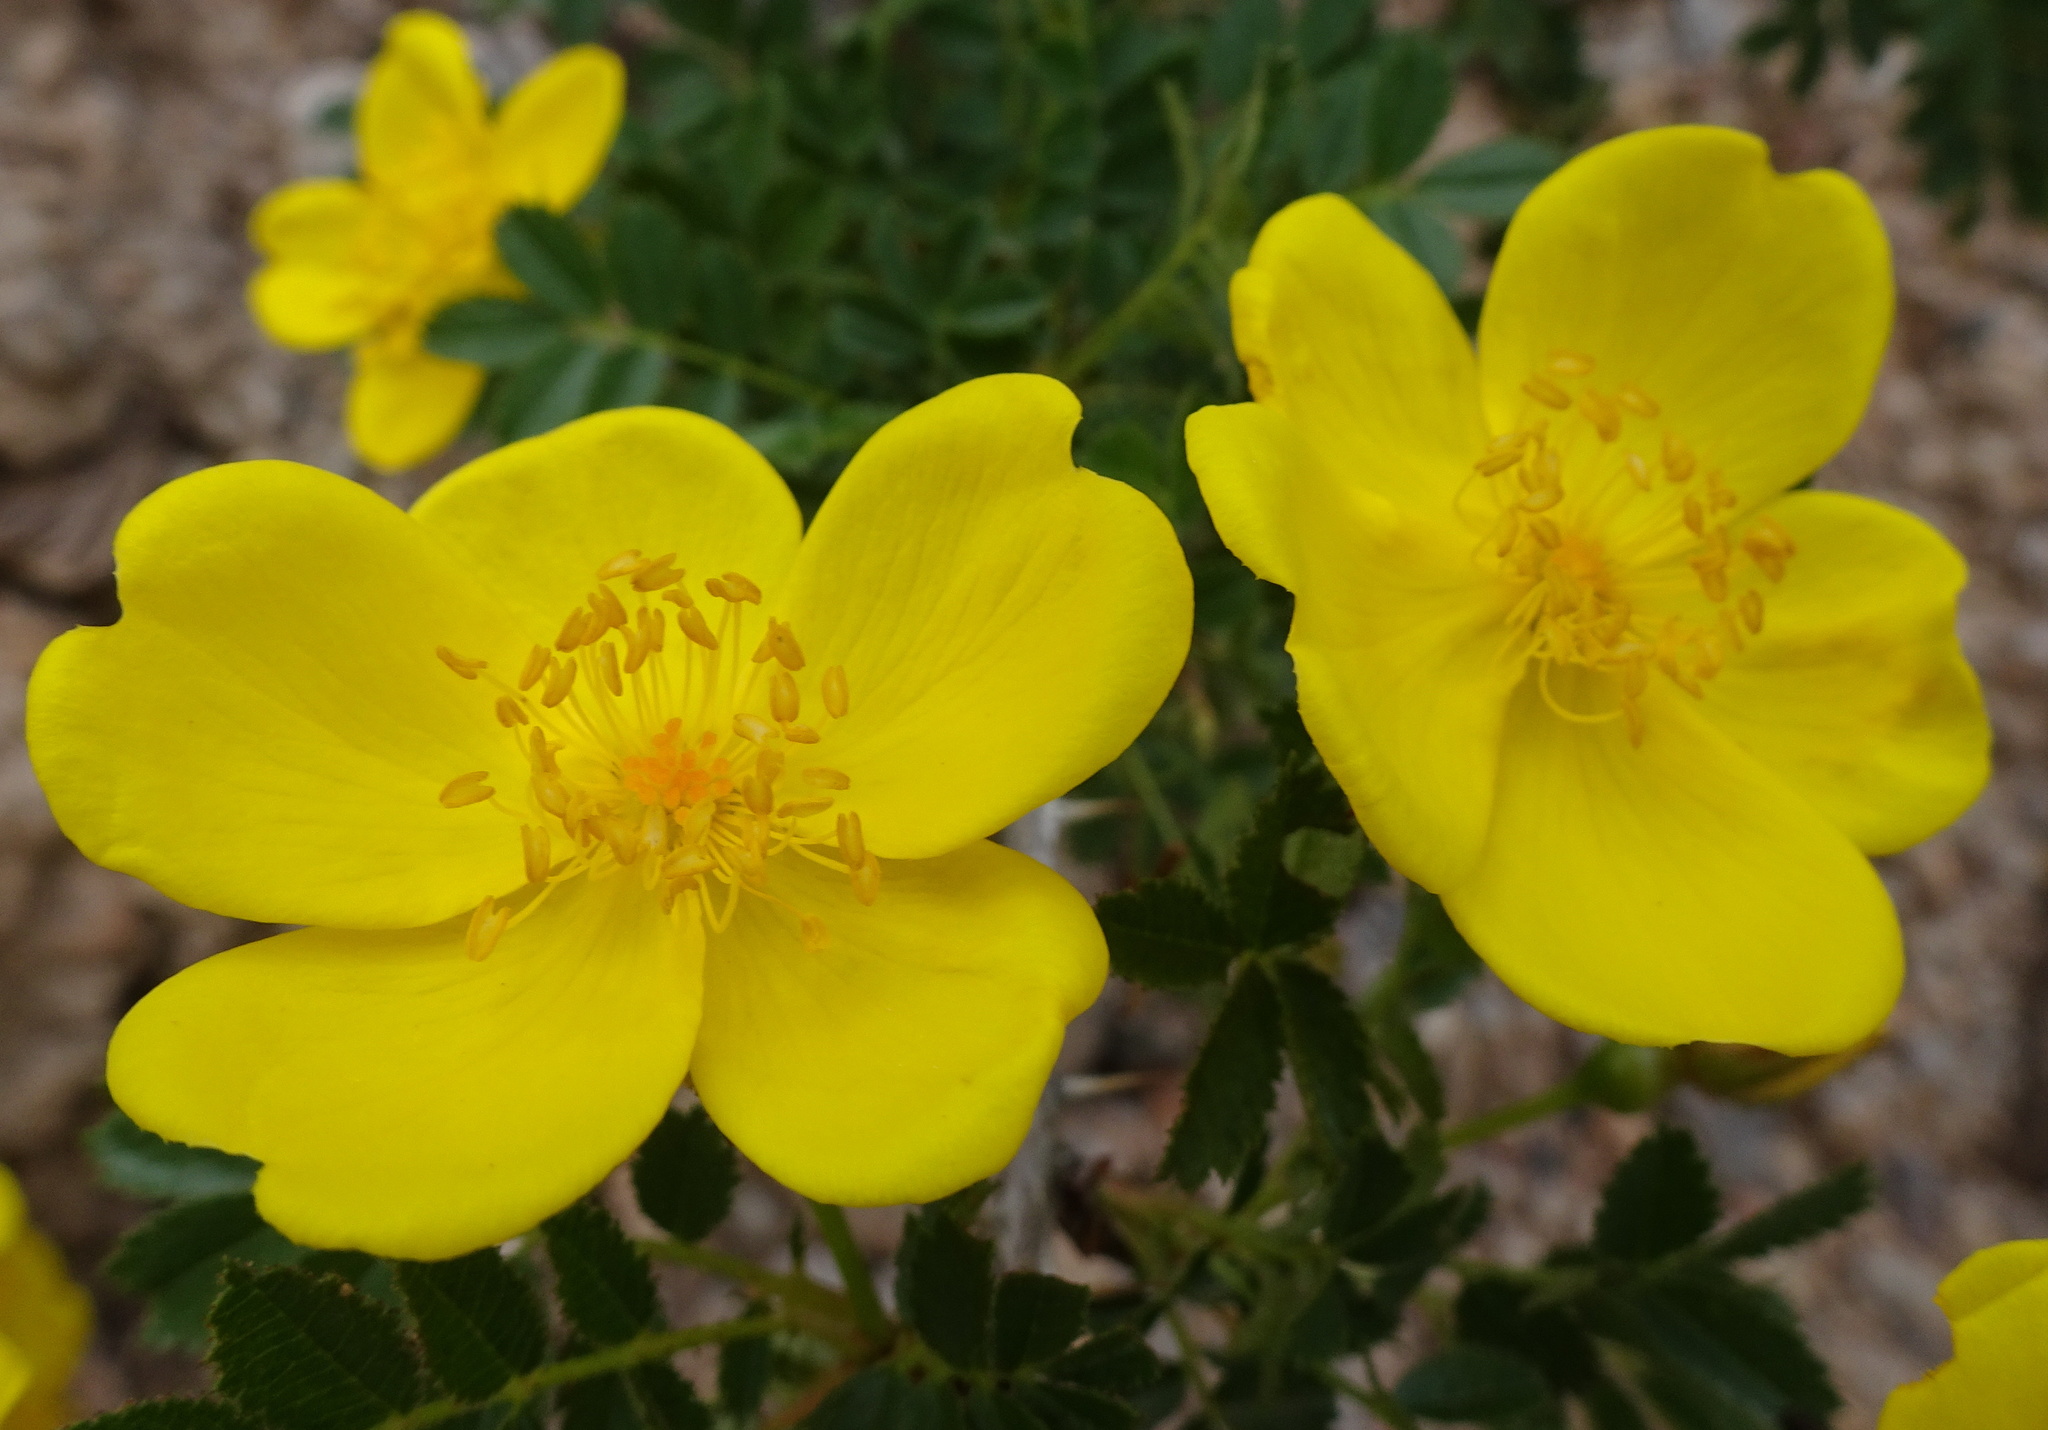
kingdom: Plantae
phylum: Tracheophyta
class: Magnoliopsida
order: Rosales
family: Rosaceae
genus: Rosa
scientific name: Rosa kokanica
